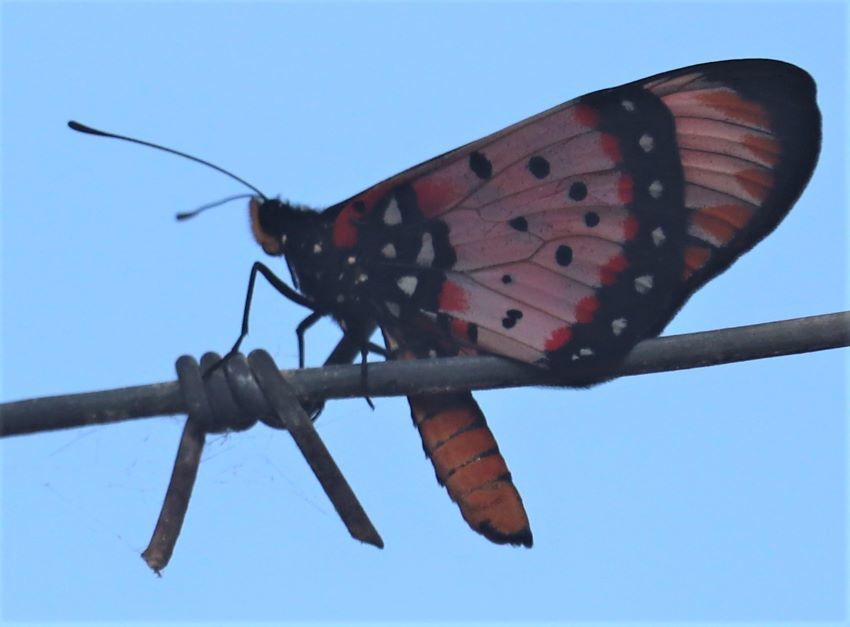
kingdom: Animalia
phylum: Arthropoda
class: Insecta
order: Lepidoptera
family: Nymphalidae
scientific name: Nymphalidae
